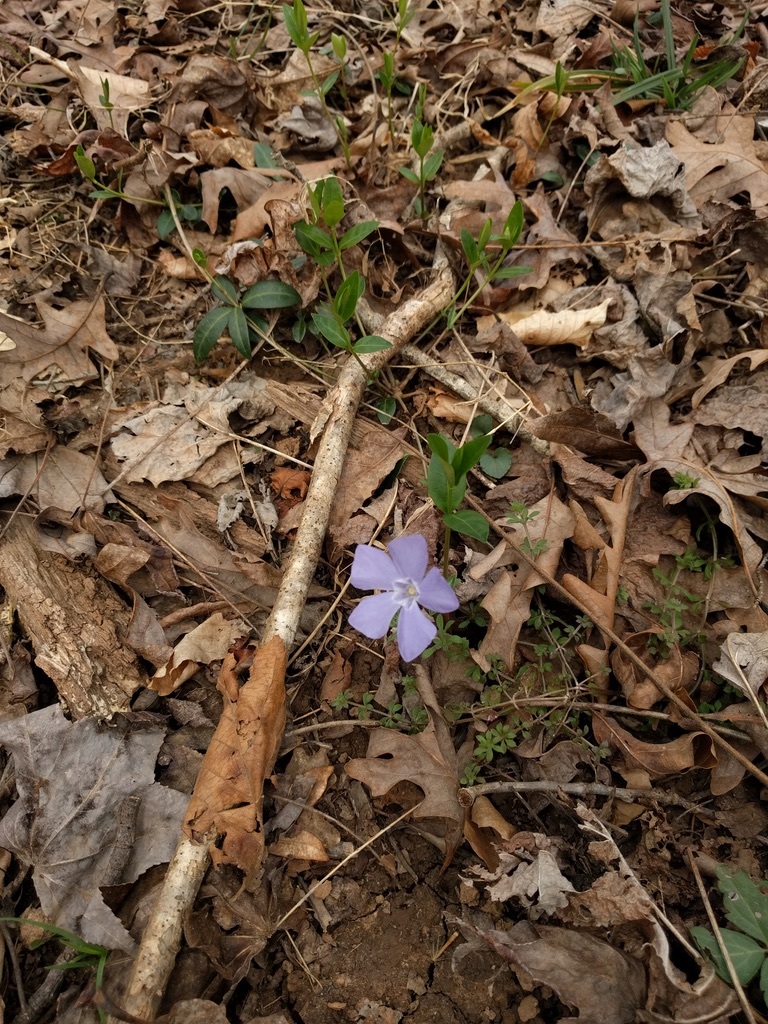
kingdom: Plantae
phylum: Tracheophyta
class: Magnoliopsida
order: Gentianales
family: Apocynaceae
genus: Vinca
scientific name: Vinca major
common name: Greater periwinkle
